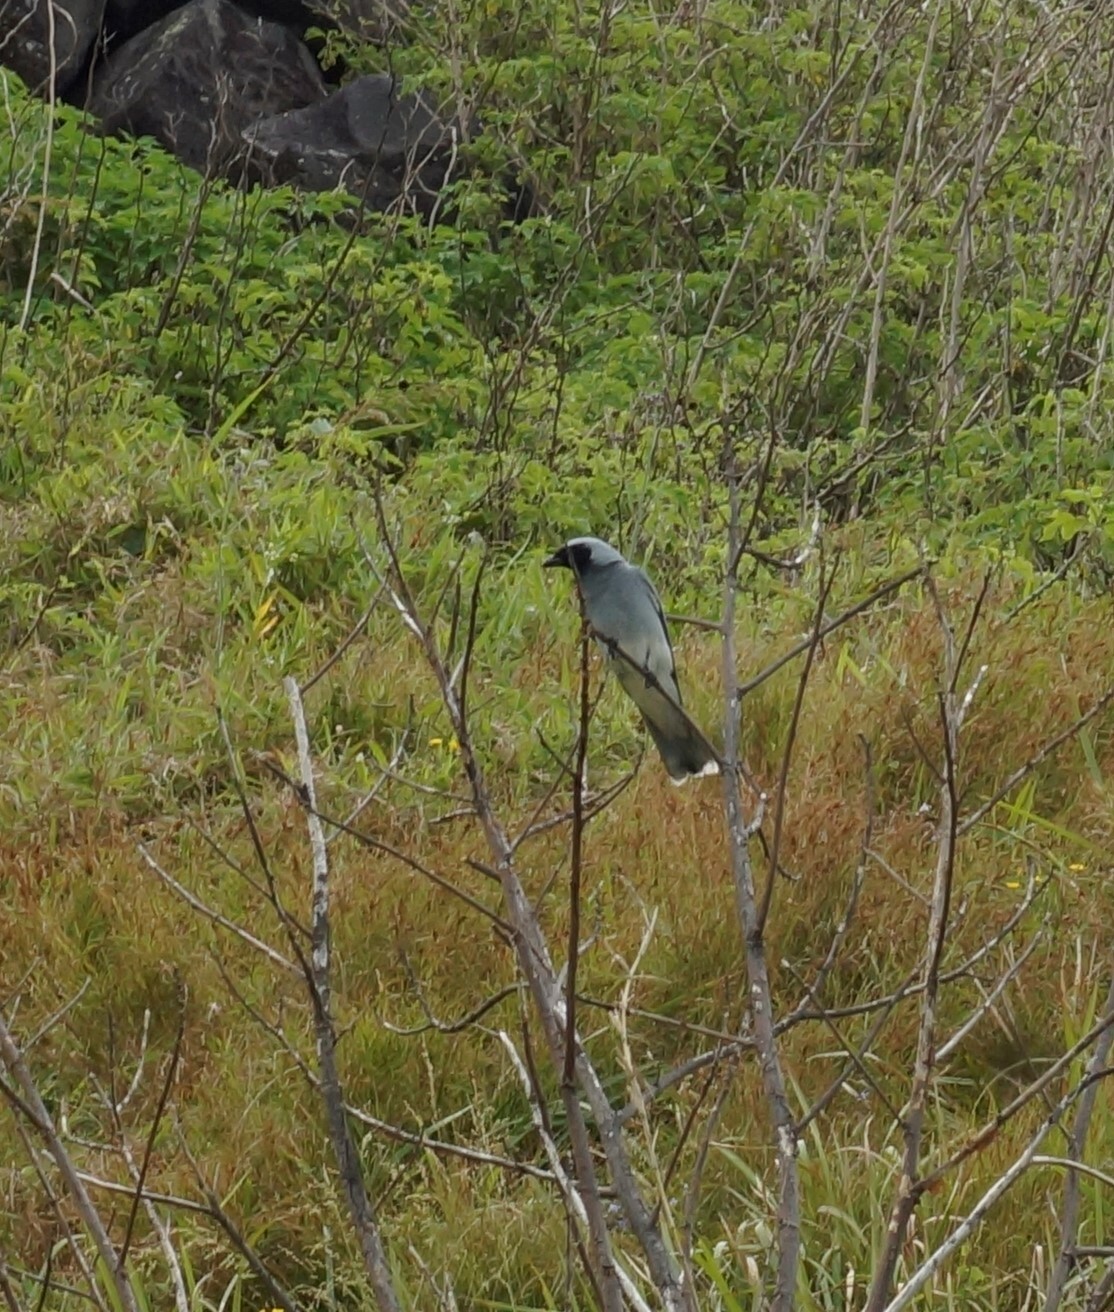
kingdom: Animalia
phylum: Chordata
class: Aves
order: Passeriformes
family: Campephagidae
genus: Coracina
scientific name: Coracina novaehollandiae
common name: Black-faced cuckooshrike
